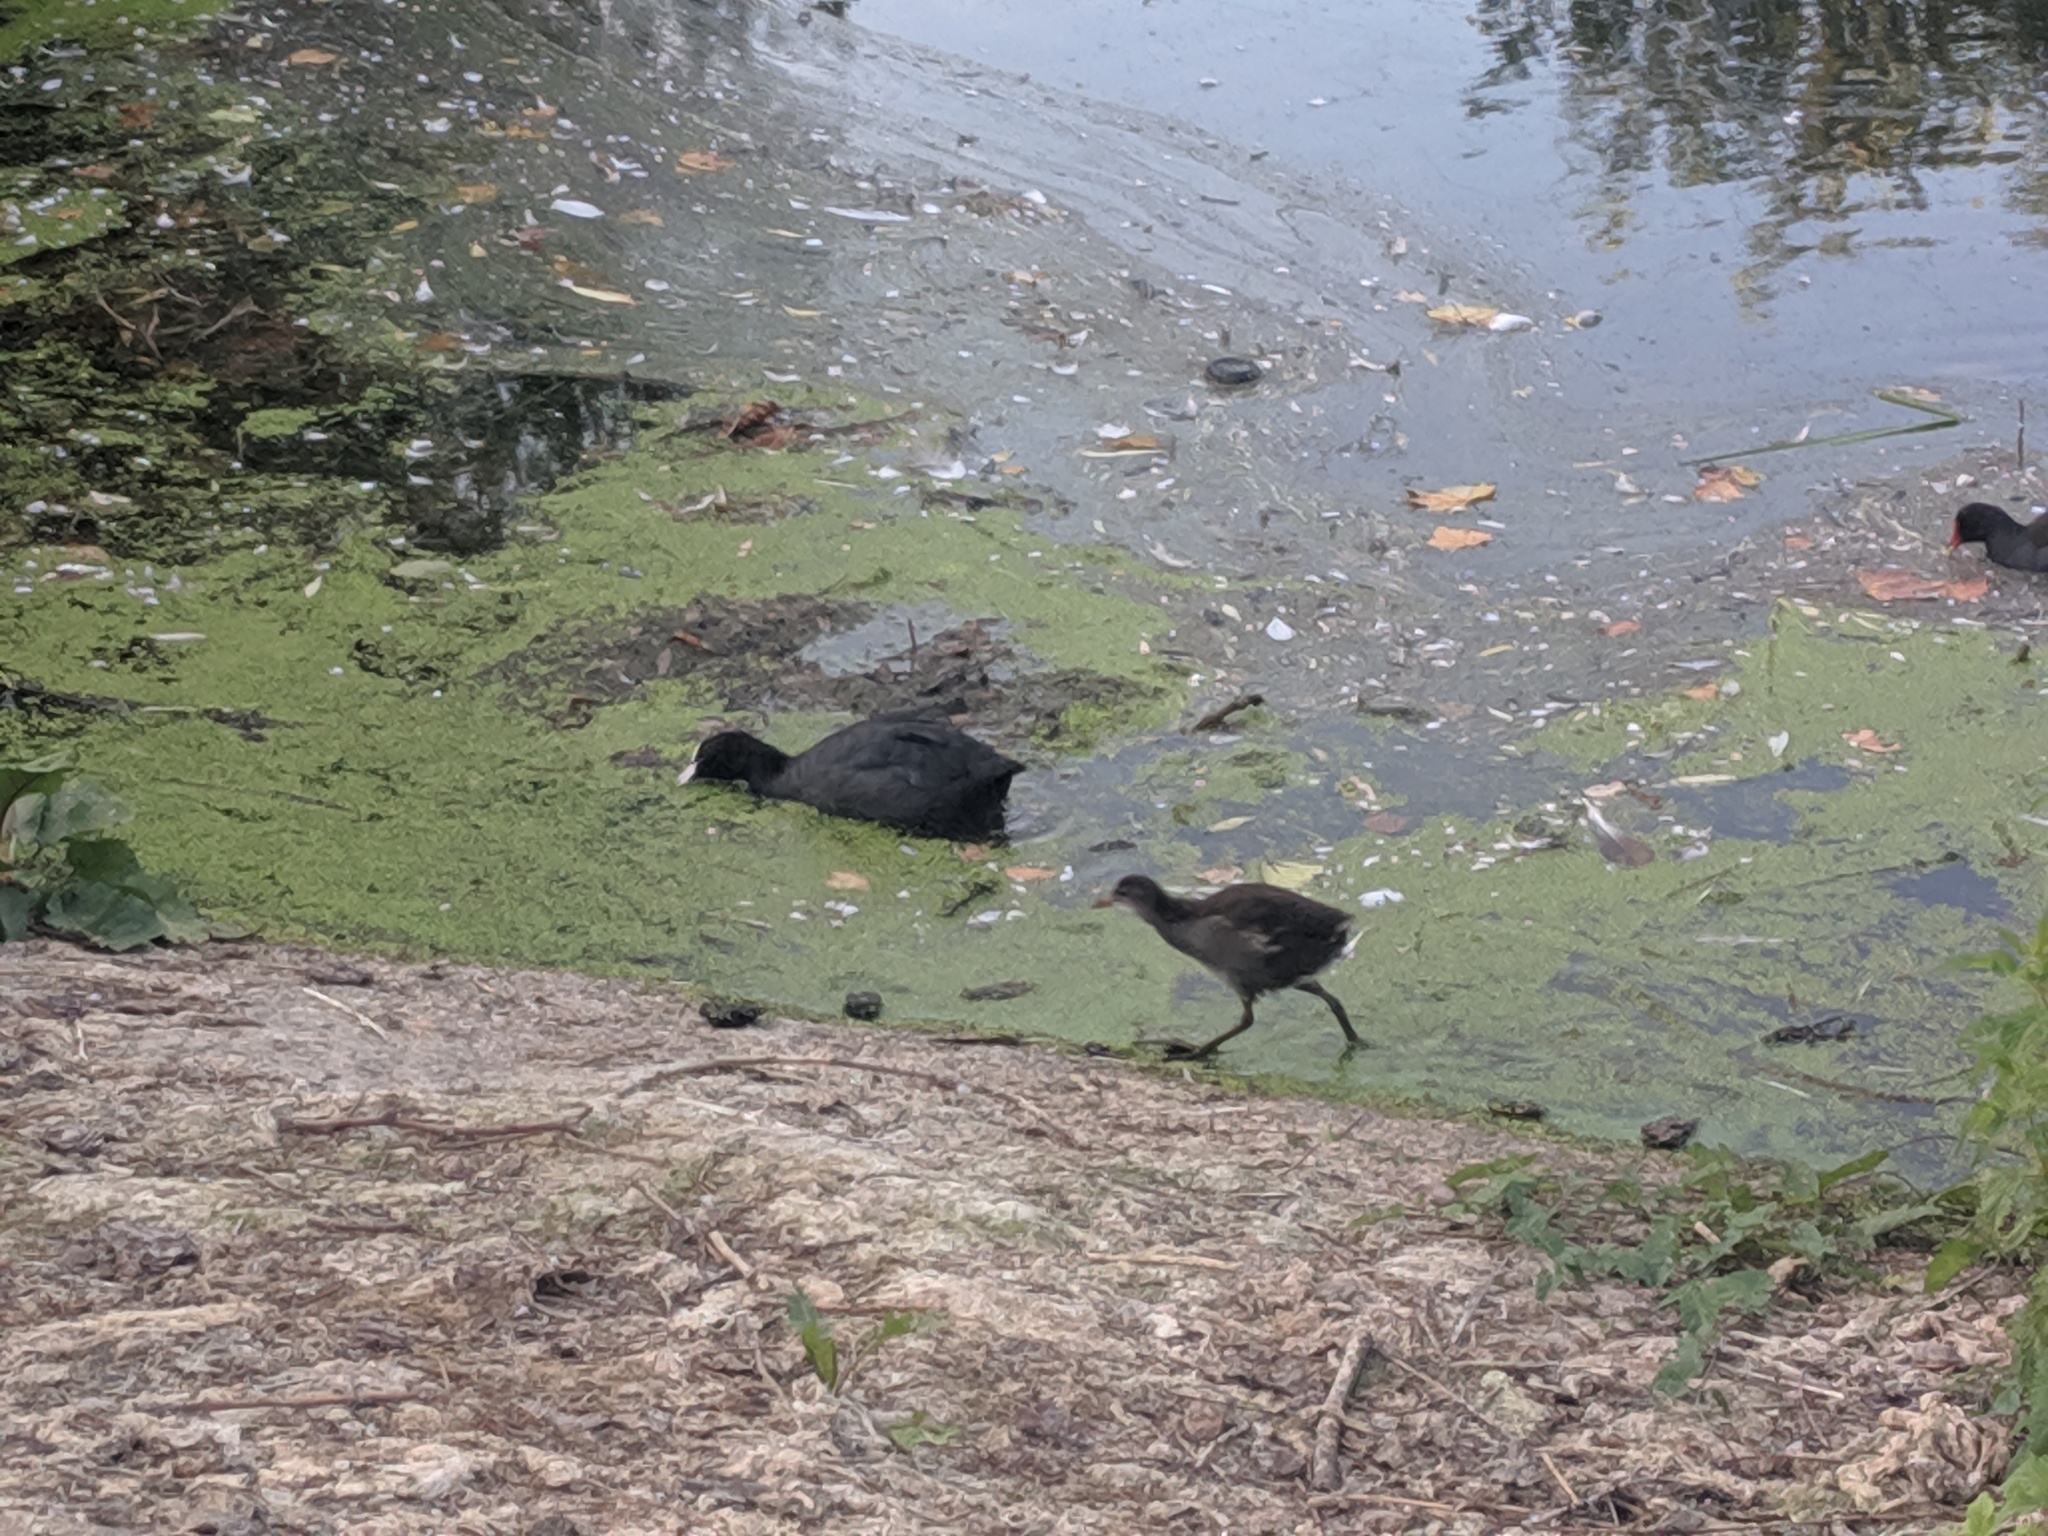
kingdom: Animalia
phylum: Chordata
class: Aves
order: Gruiformes
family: Rallidae
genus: Fulica
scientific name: Fulica atra
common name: Eurasian coot
